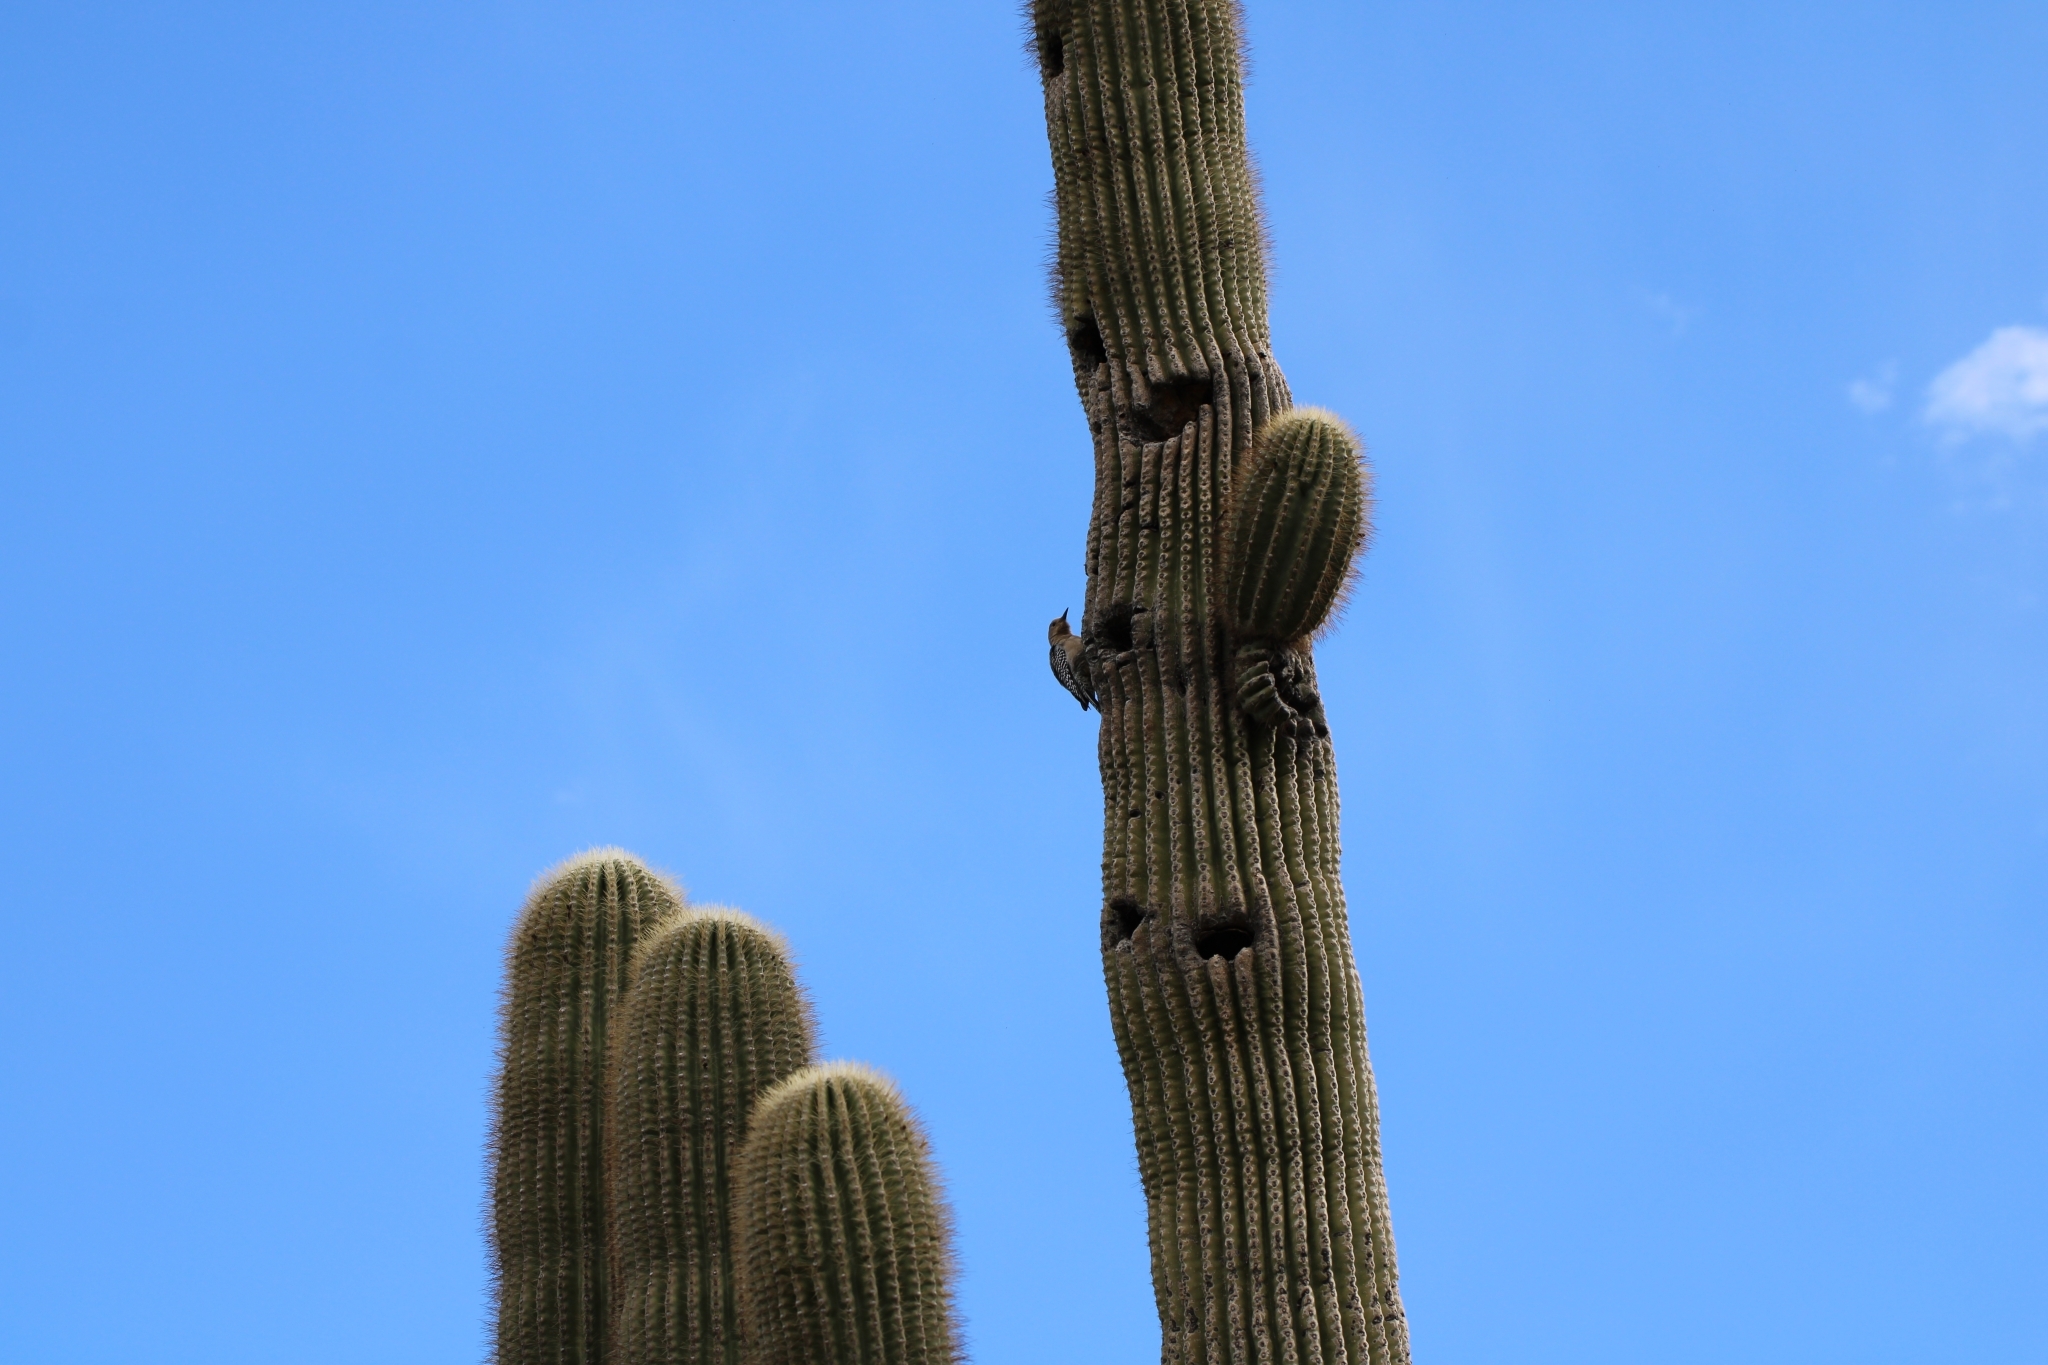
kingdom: Animalia
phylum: Chordata
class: Aves
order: Piciformes
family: Picidae
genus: Melanerpes
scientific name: Melanerpes uropygialis
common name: Gila woodpecker
